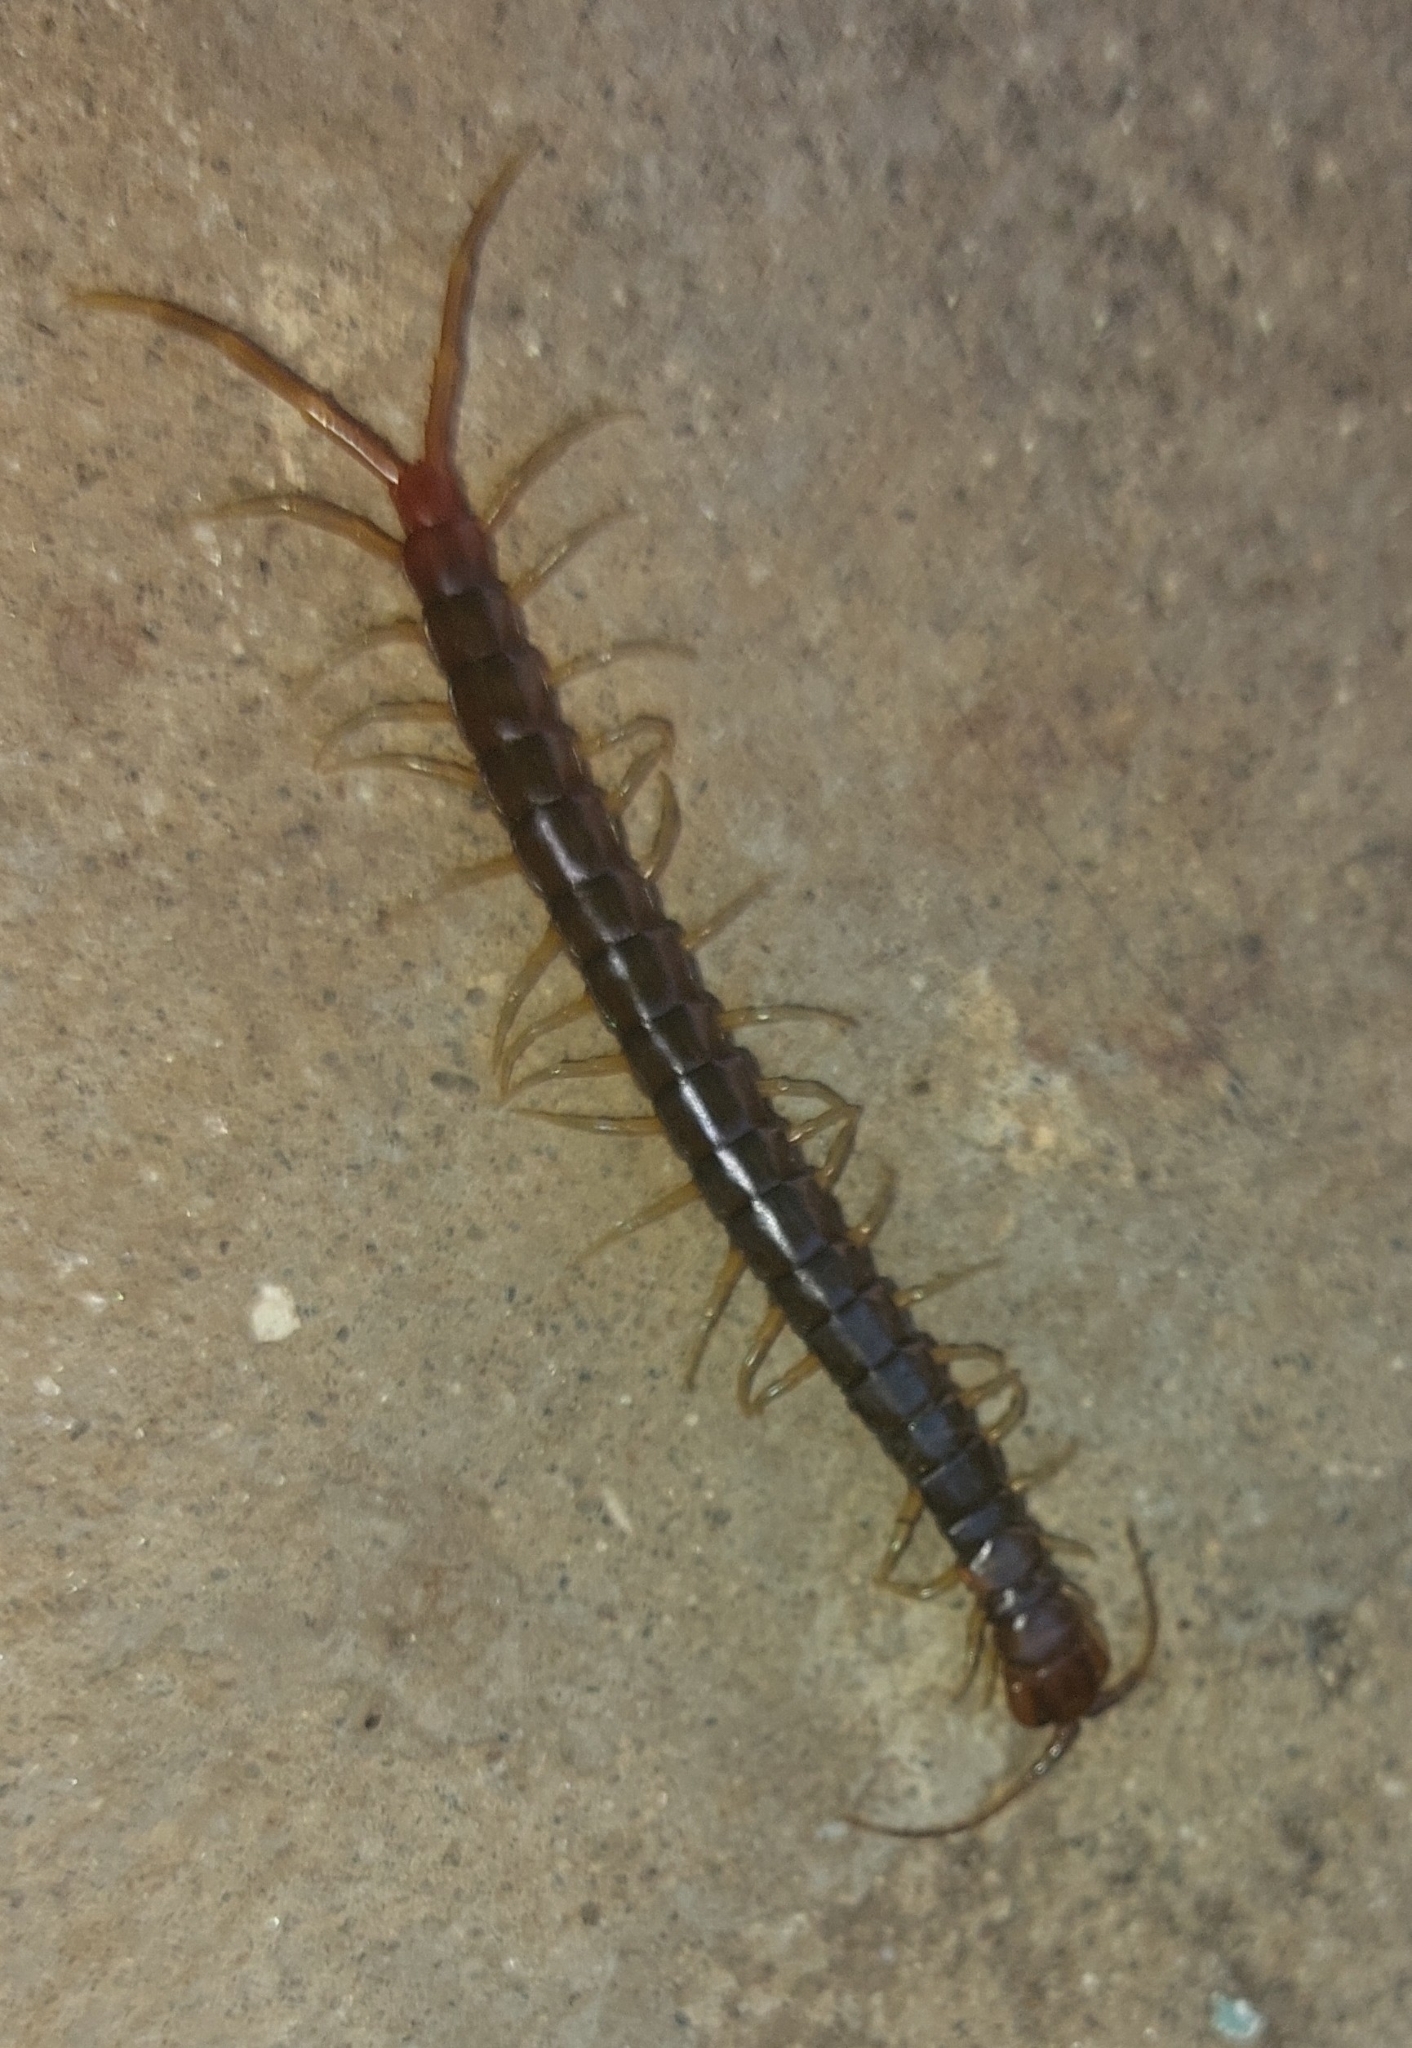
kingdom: Animalia
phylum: Arthropoda
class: Chilopoda
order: Scolopendromorpha
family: Scolopendridae
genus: Rhysida
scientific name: Rhysida longipes
